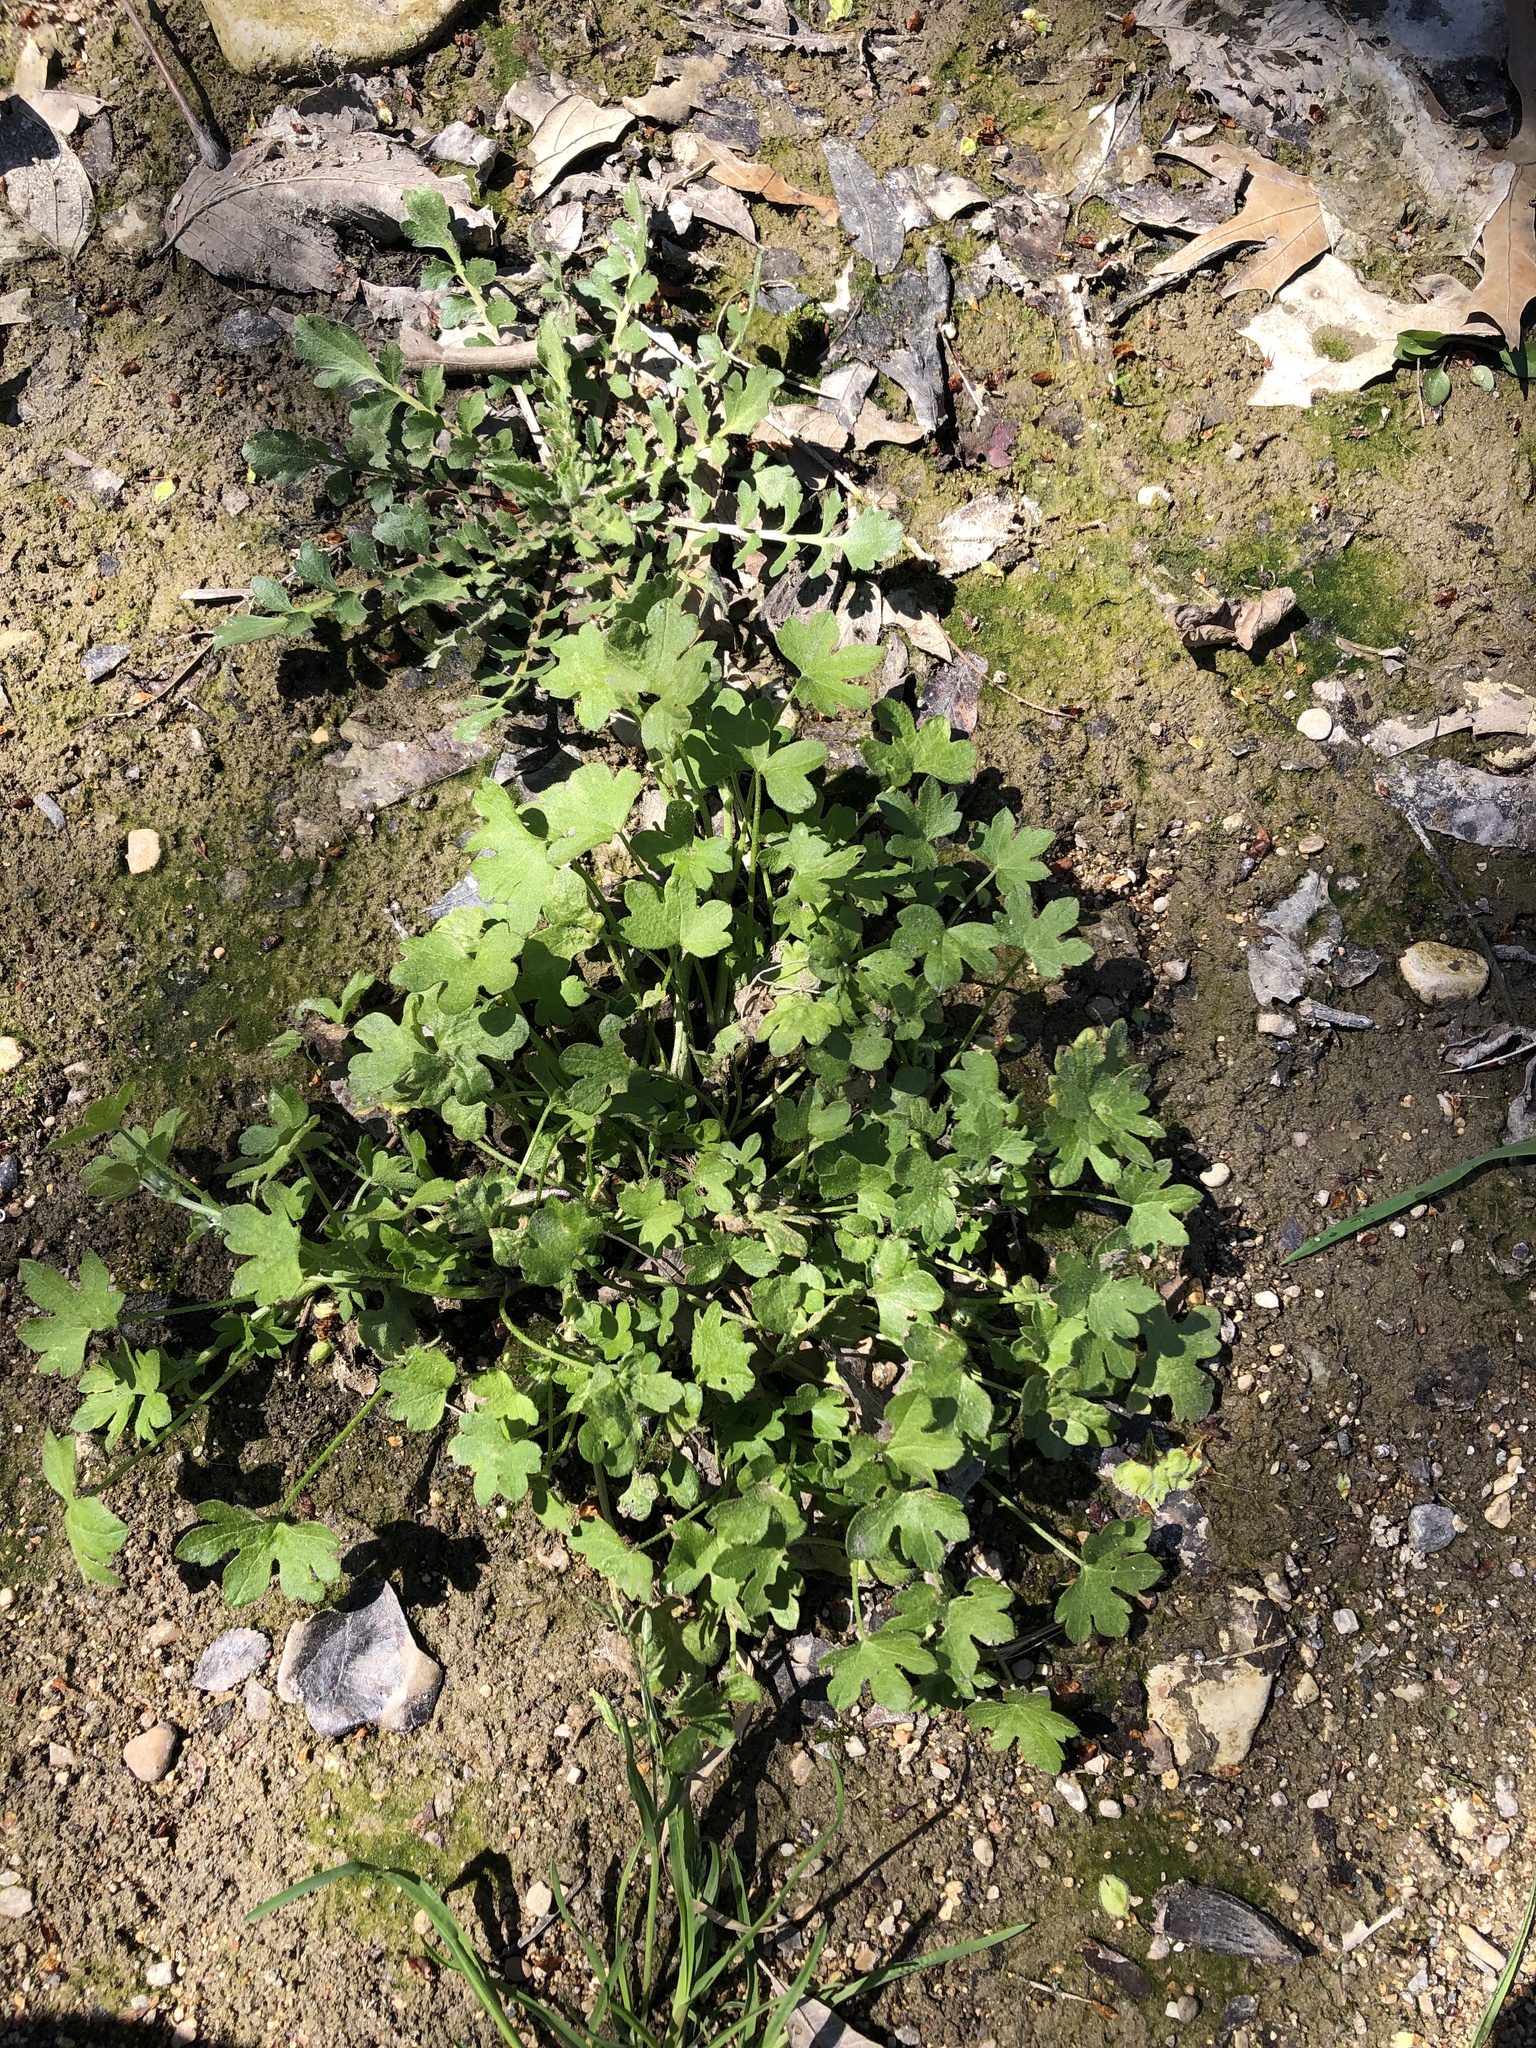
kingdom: Plantae
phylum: Tracheophyta
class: Magnoliopsida
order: Apiales
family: Apiaceae
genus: Bowlesia
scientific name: Bowlesia incana
